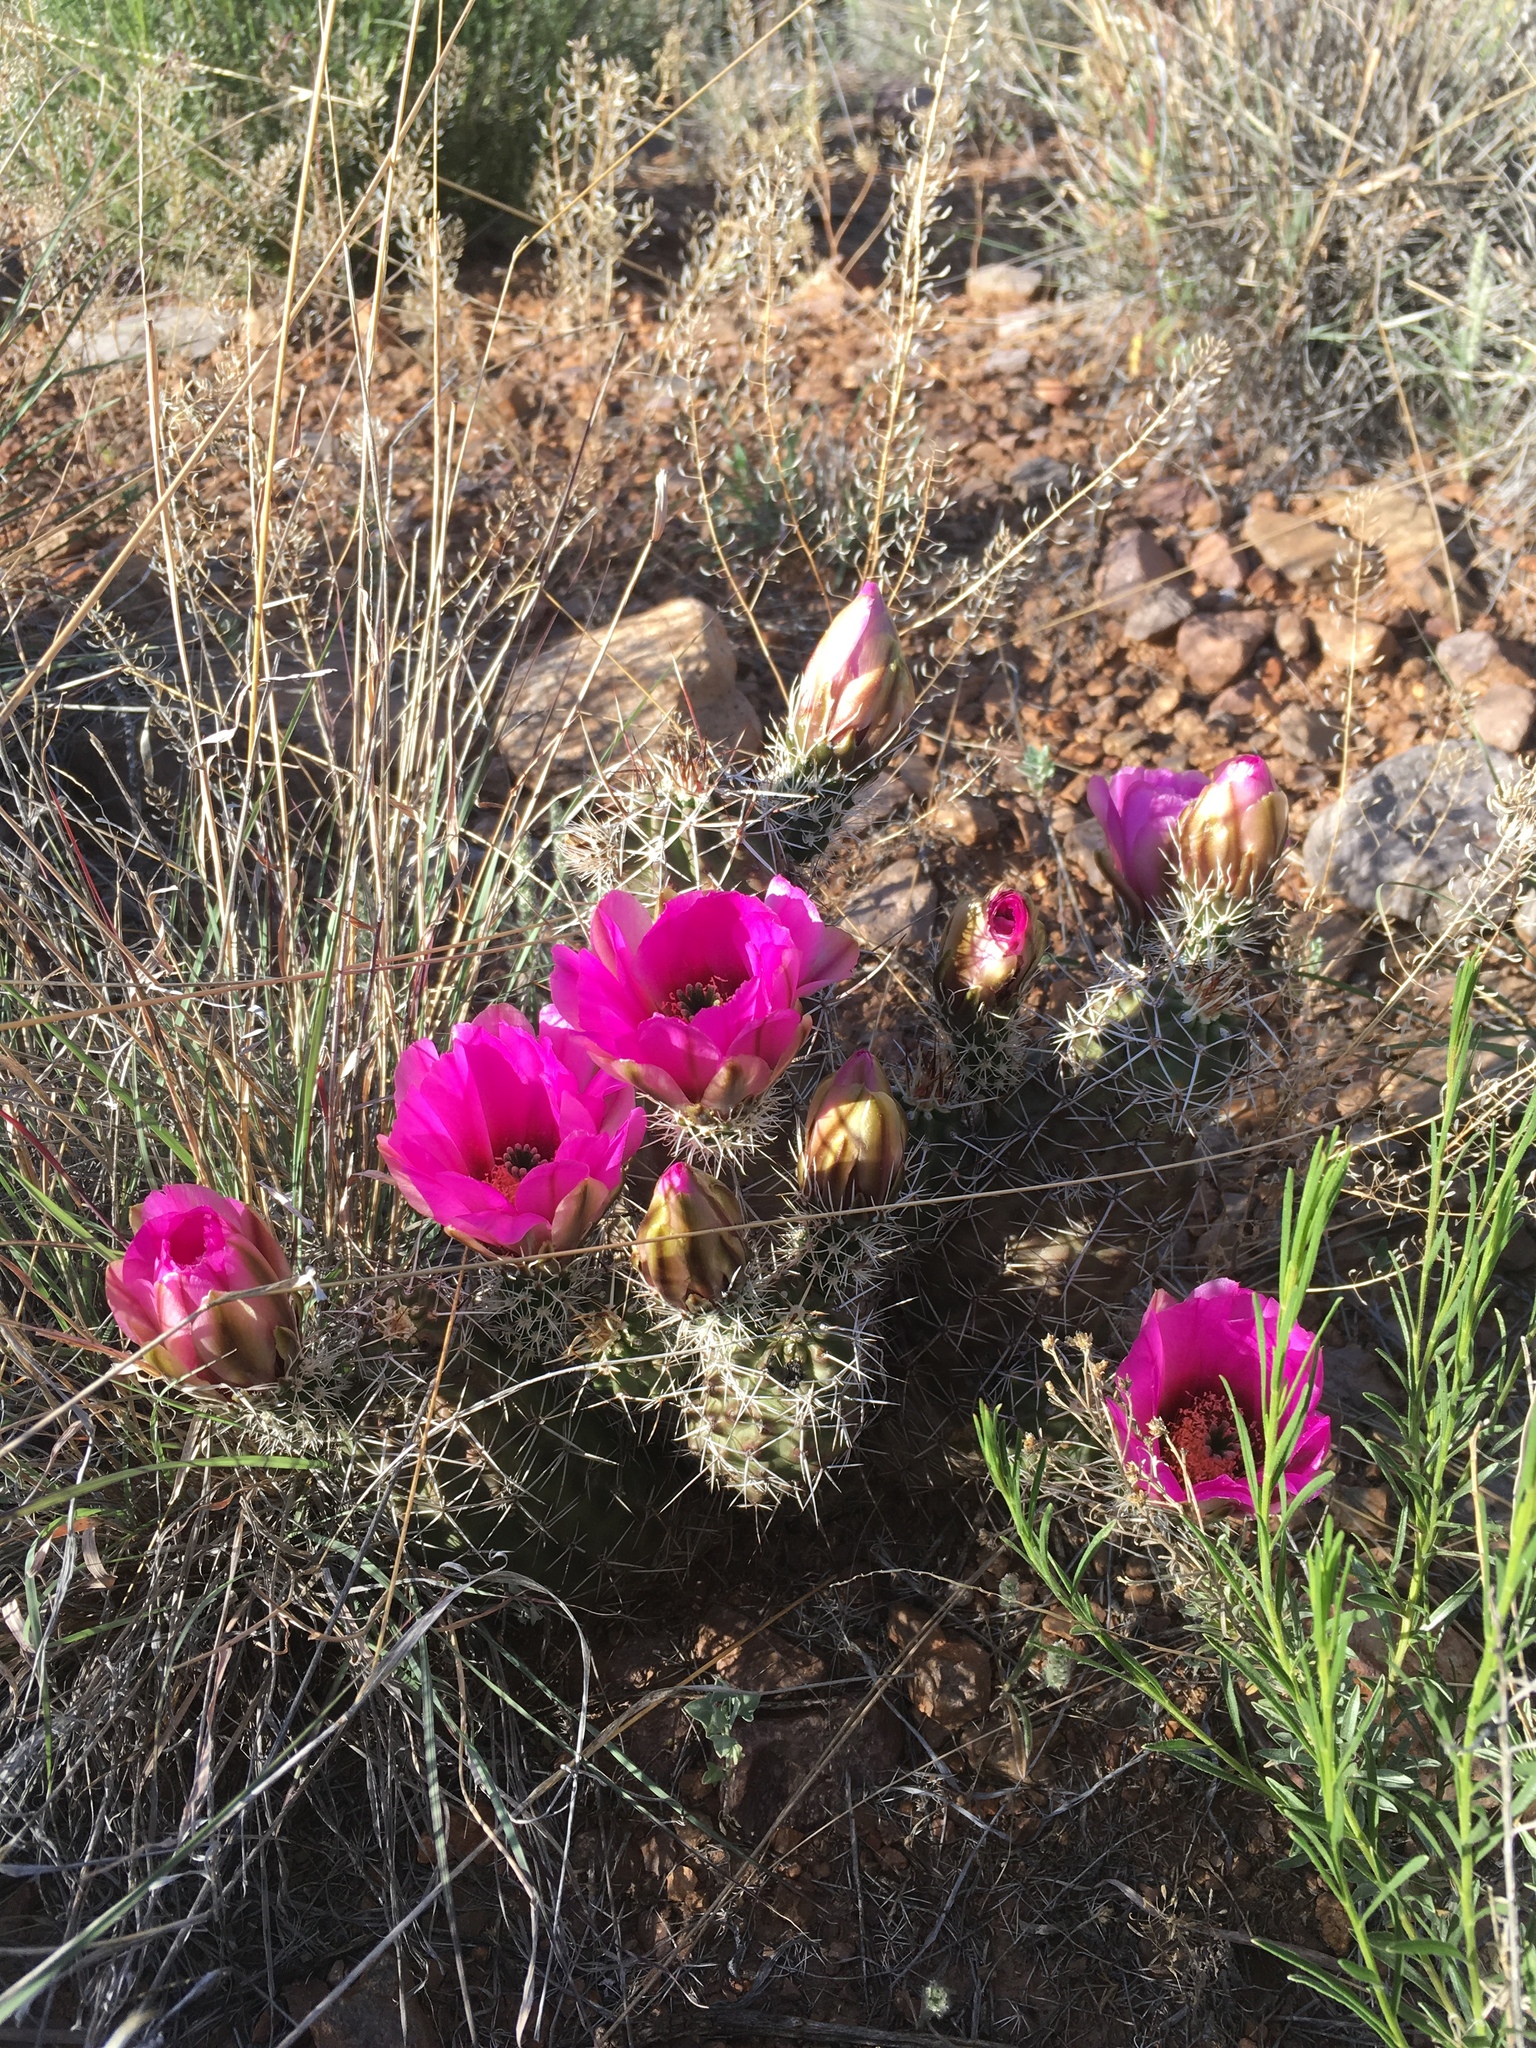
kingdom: Plantae
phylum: Tracheophyta
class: Magnoliopsida
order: Caryophyllales
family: Cactaceae
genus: Echinocereus
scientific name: Echinocereus fendleri
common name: Fendler's hedgehog cactus
